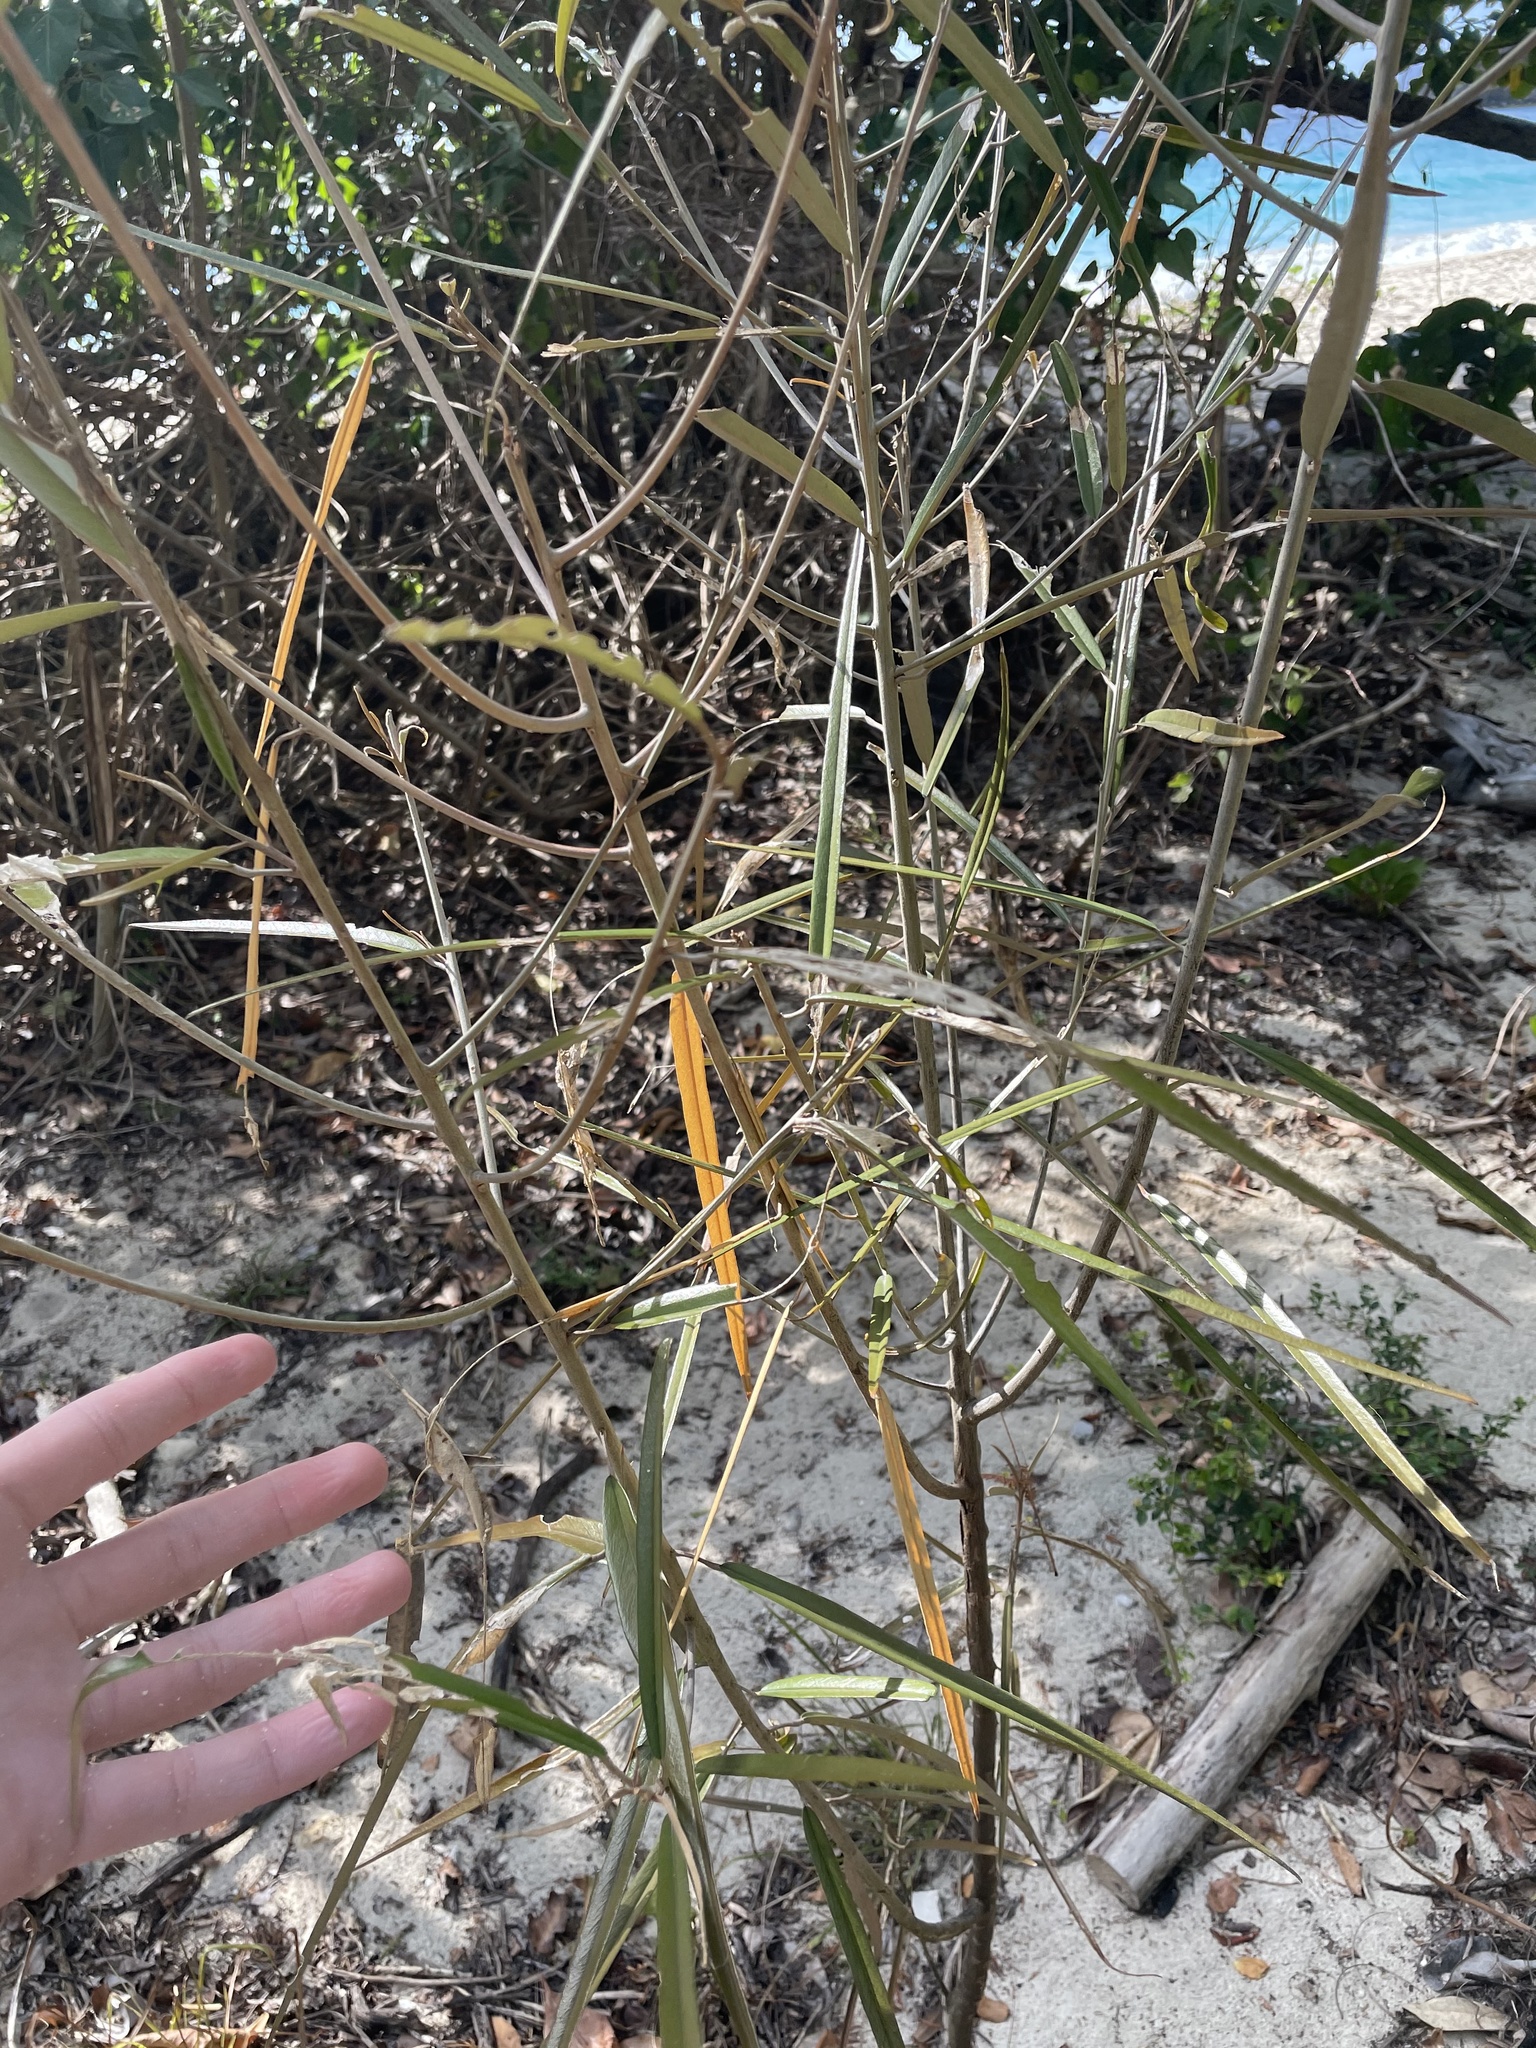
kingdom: Plantae
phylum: Tracheophyta
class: Magnoliopsida
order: Brassicales
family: Capparaceae
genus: Quadrella
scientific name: Quadrella cynophallophora
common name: Black willow
